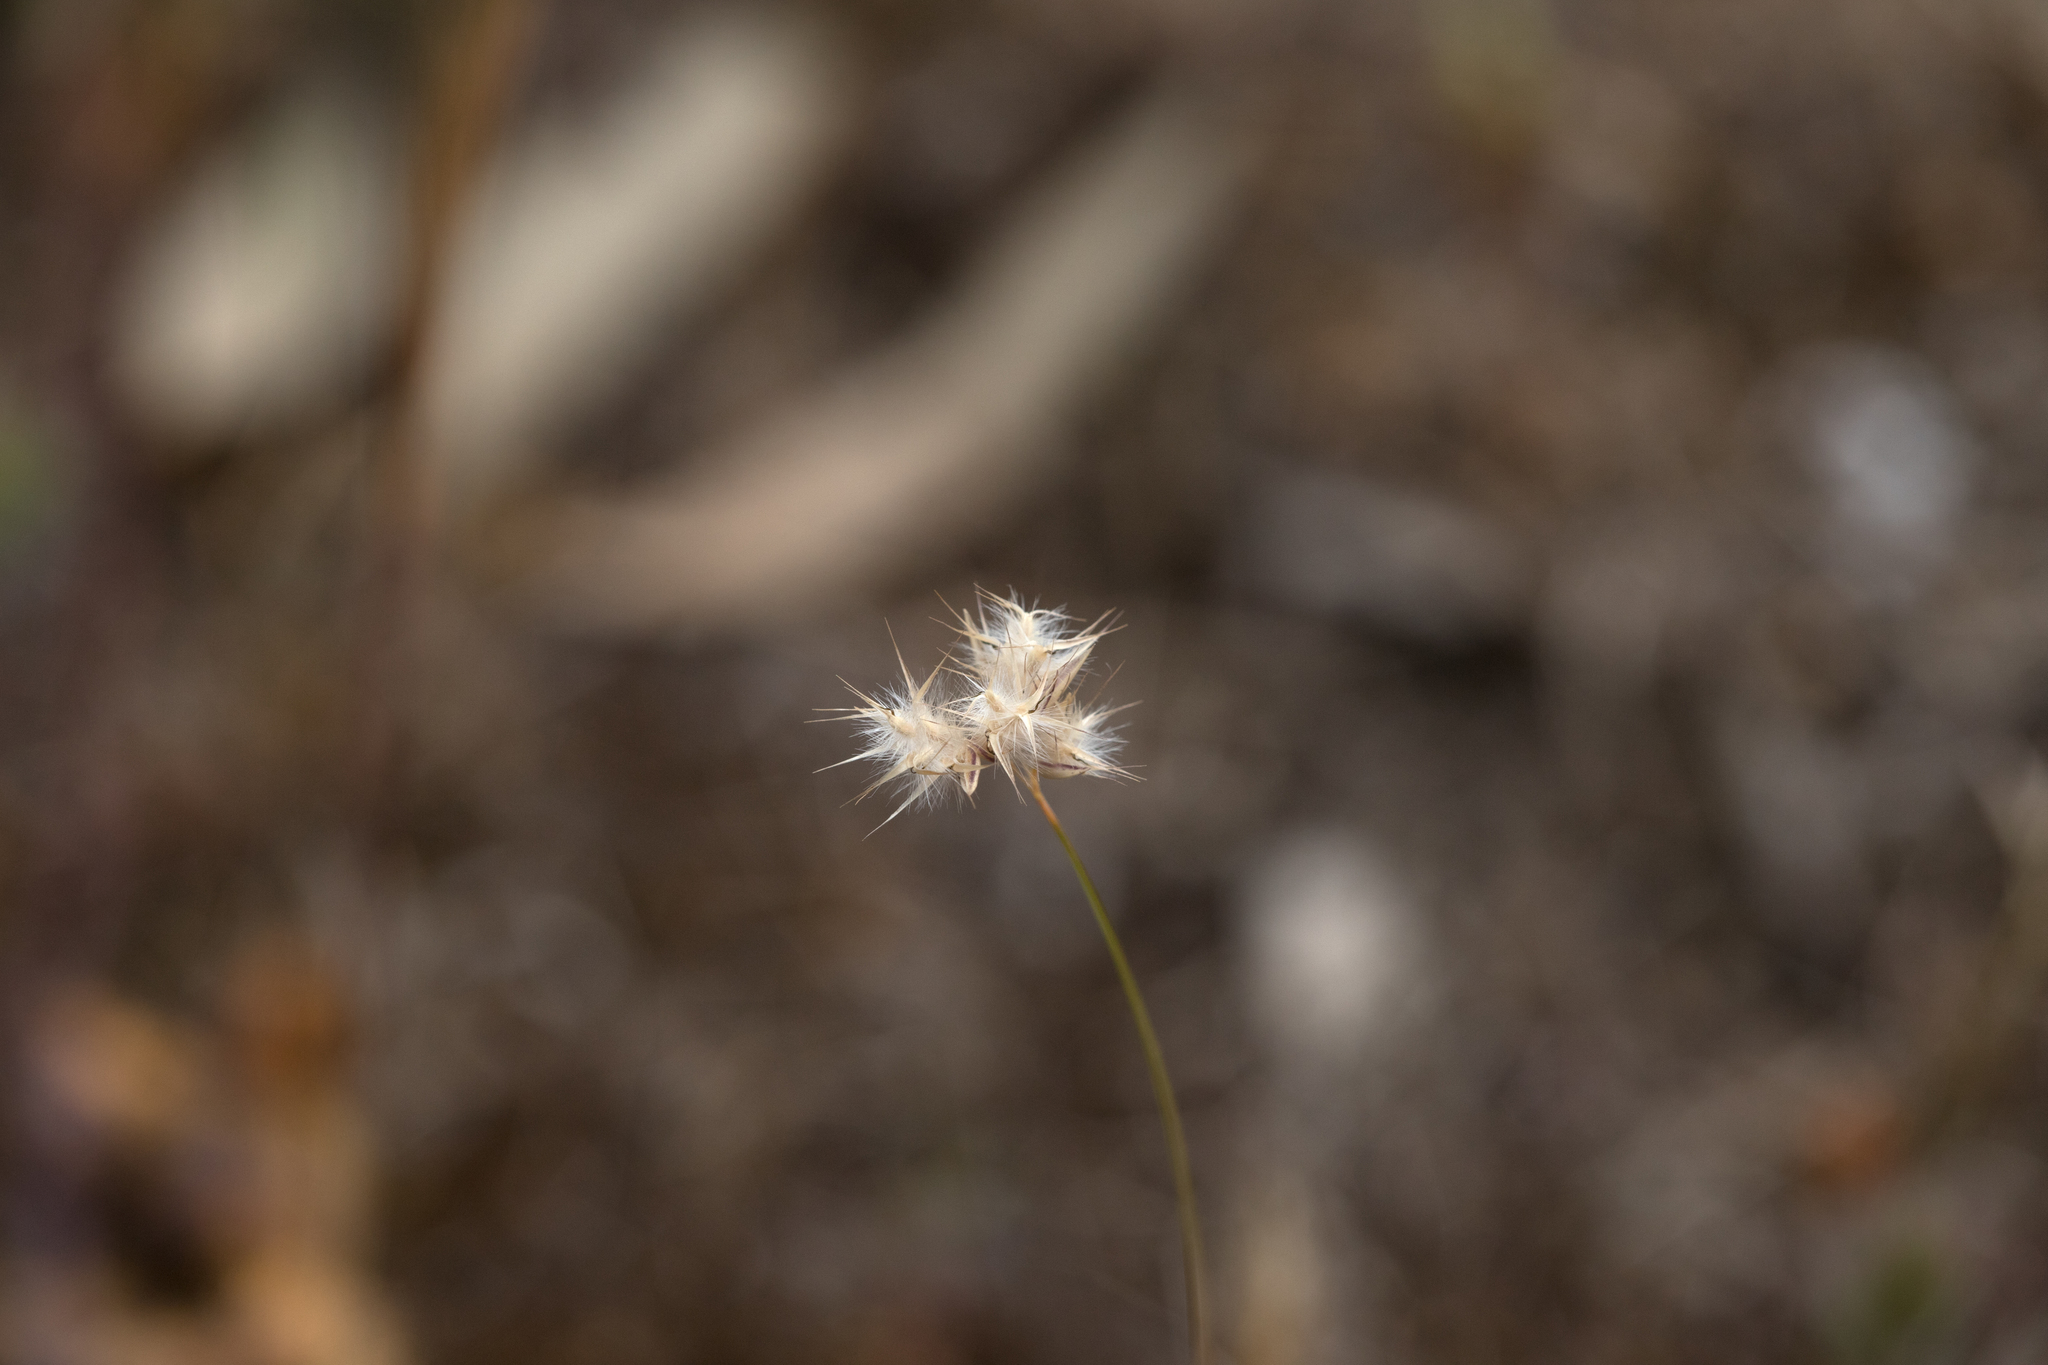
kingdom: Plantae
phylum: Tracheophyta
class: Liliopsida
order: Poales
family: Poaceae
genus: Rytidosperma
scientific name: Rytidosperma geniculatum
